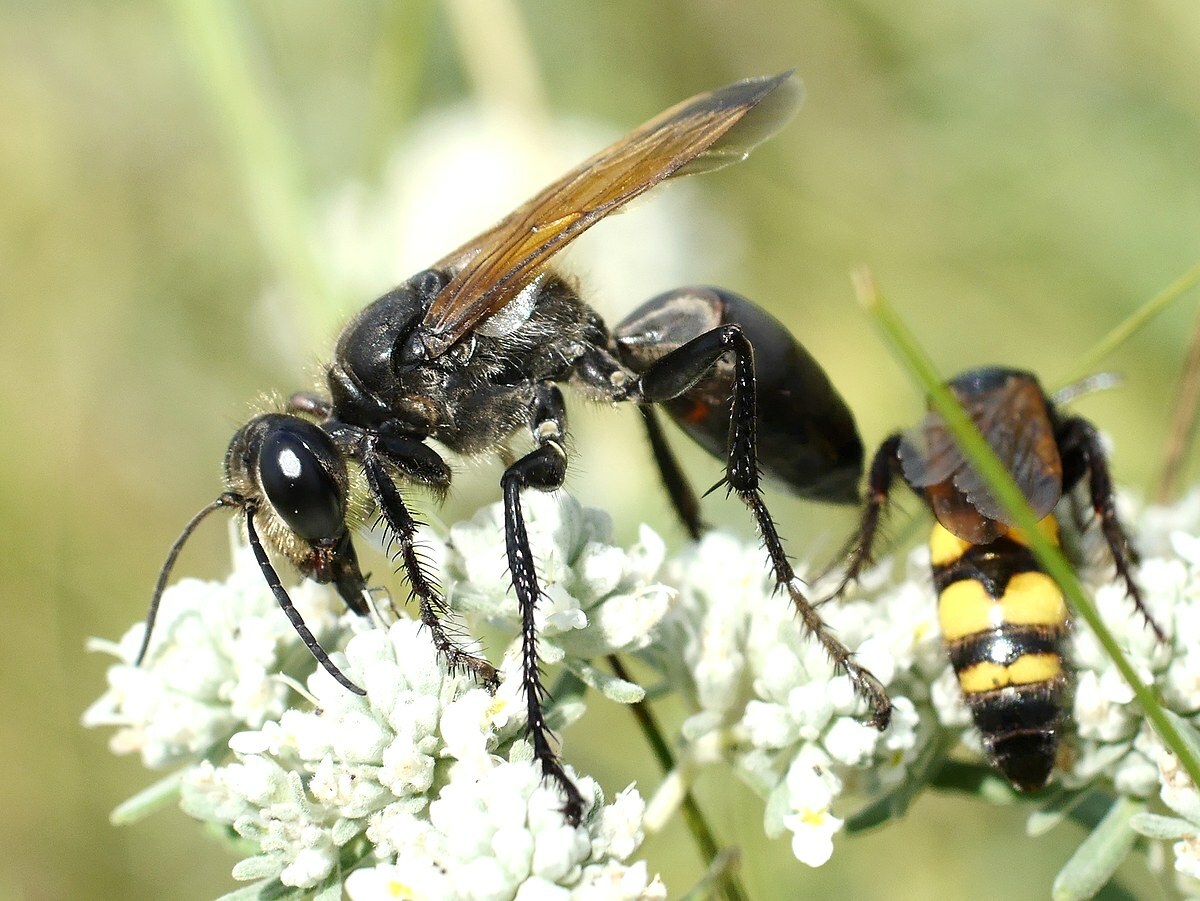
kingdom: Animalia
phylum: Arthropoda
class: Insecta
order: Hymenoptera
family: Sphecidae
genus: Sphex
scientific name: Sphex leuconotus
